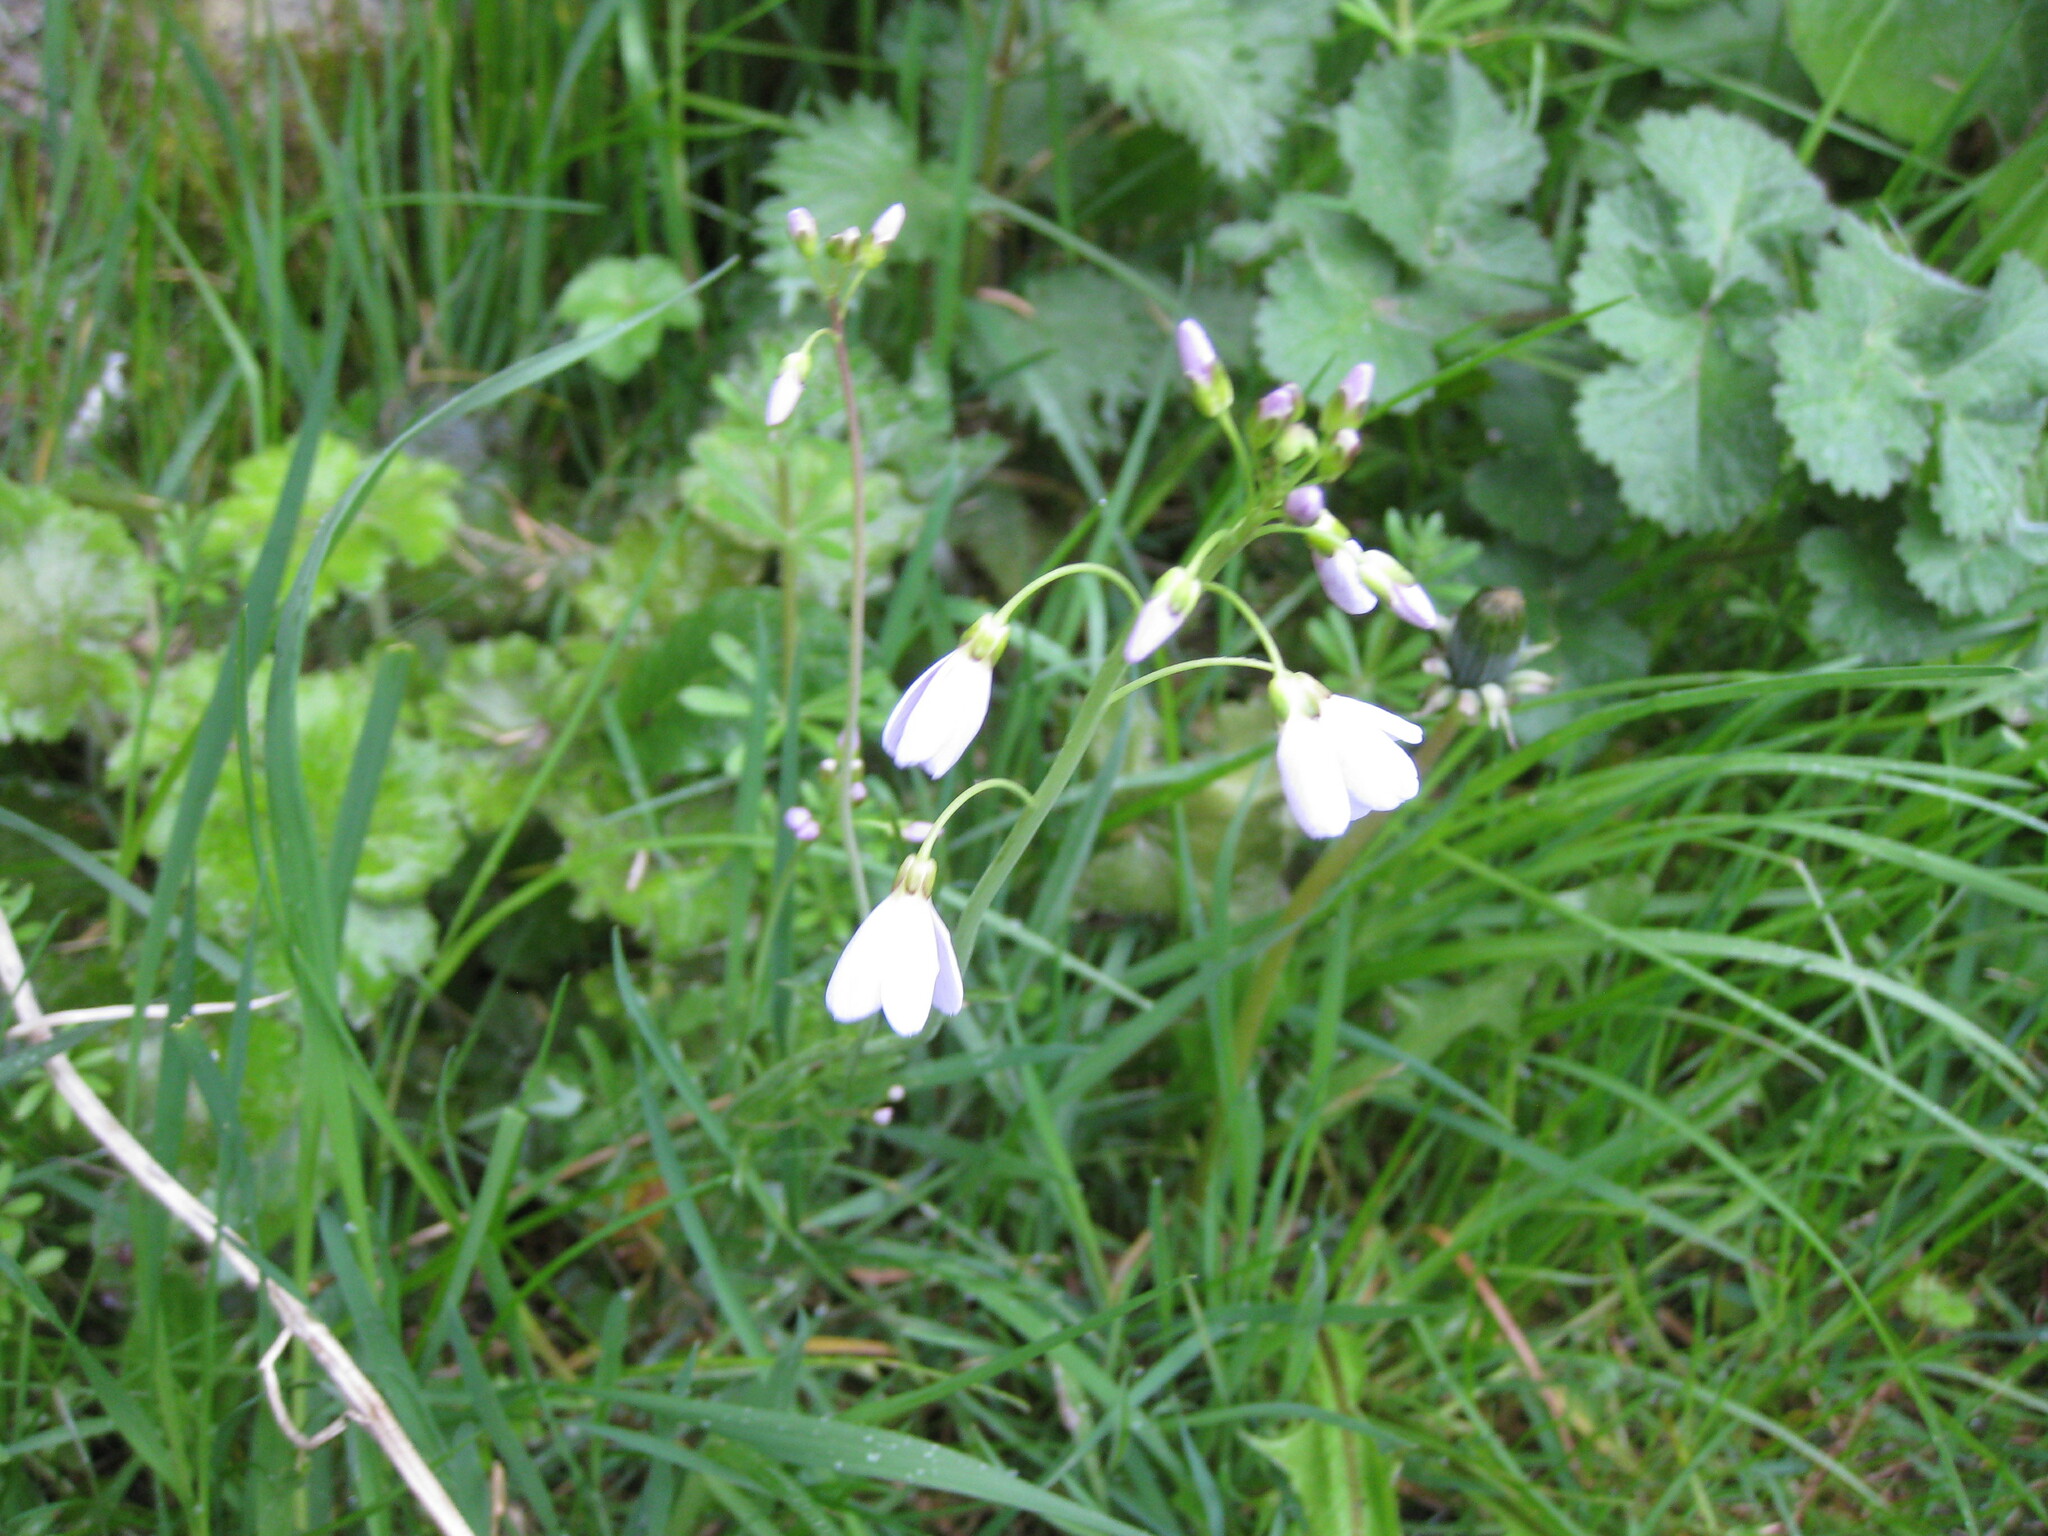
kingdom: Plantae
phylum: Tracheophyta
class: Magnoliopsida
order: Brassicales
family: Brassicaceae
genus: Cardamine
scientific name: Cardamine pratensis
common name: Cuckoo flower
